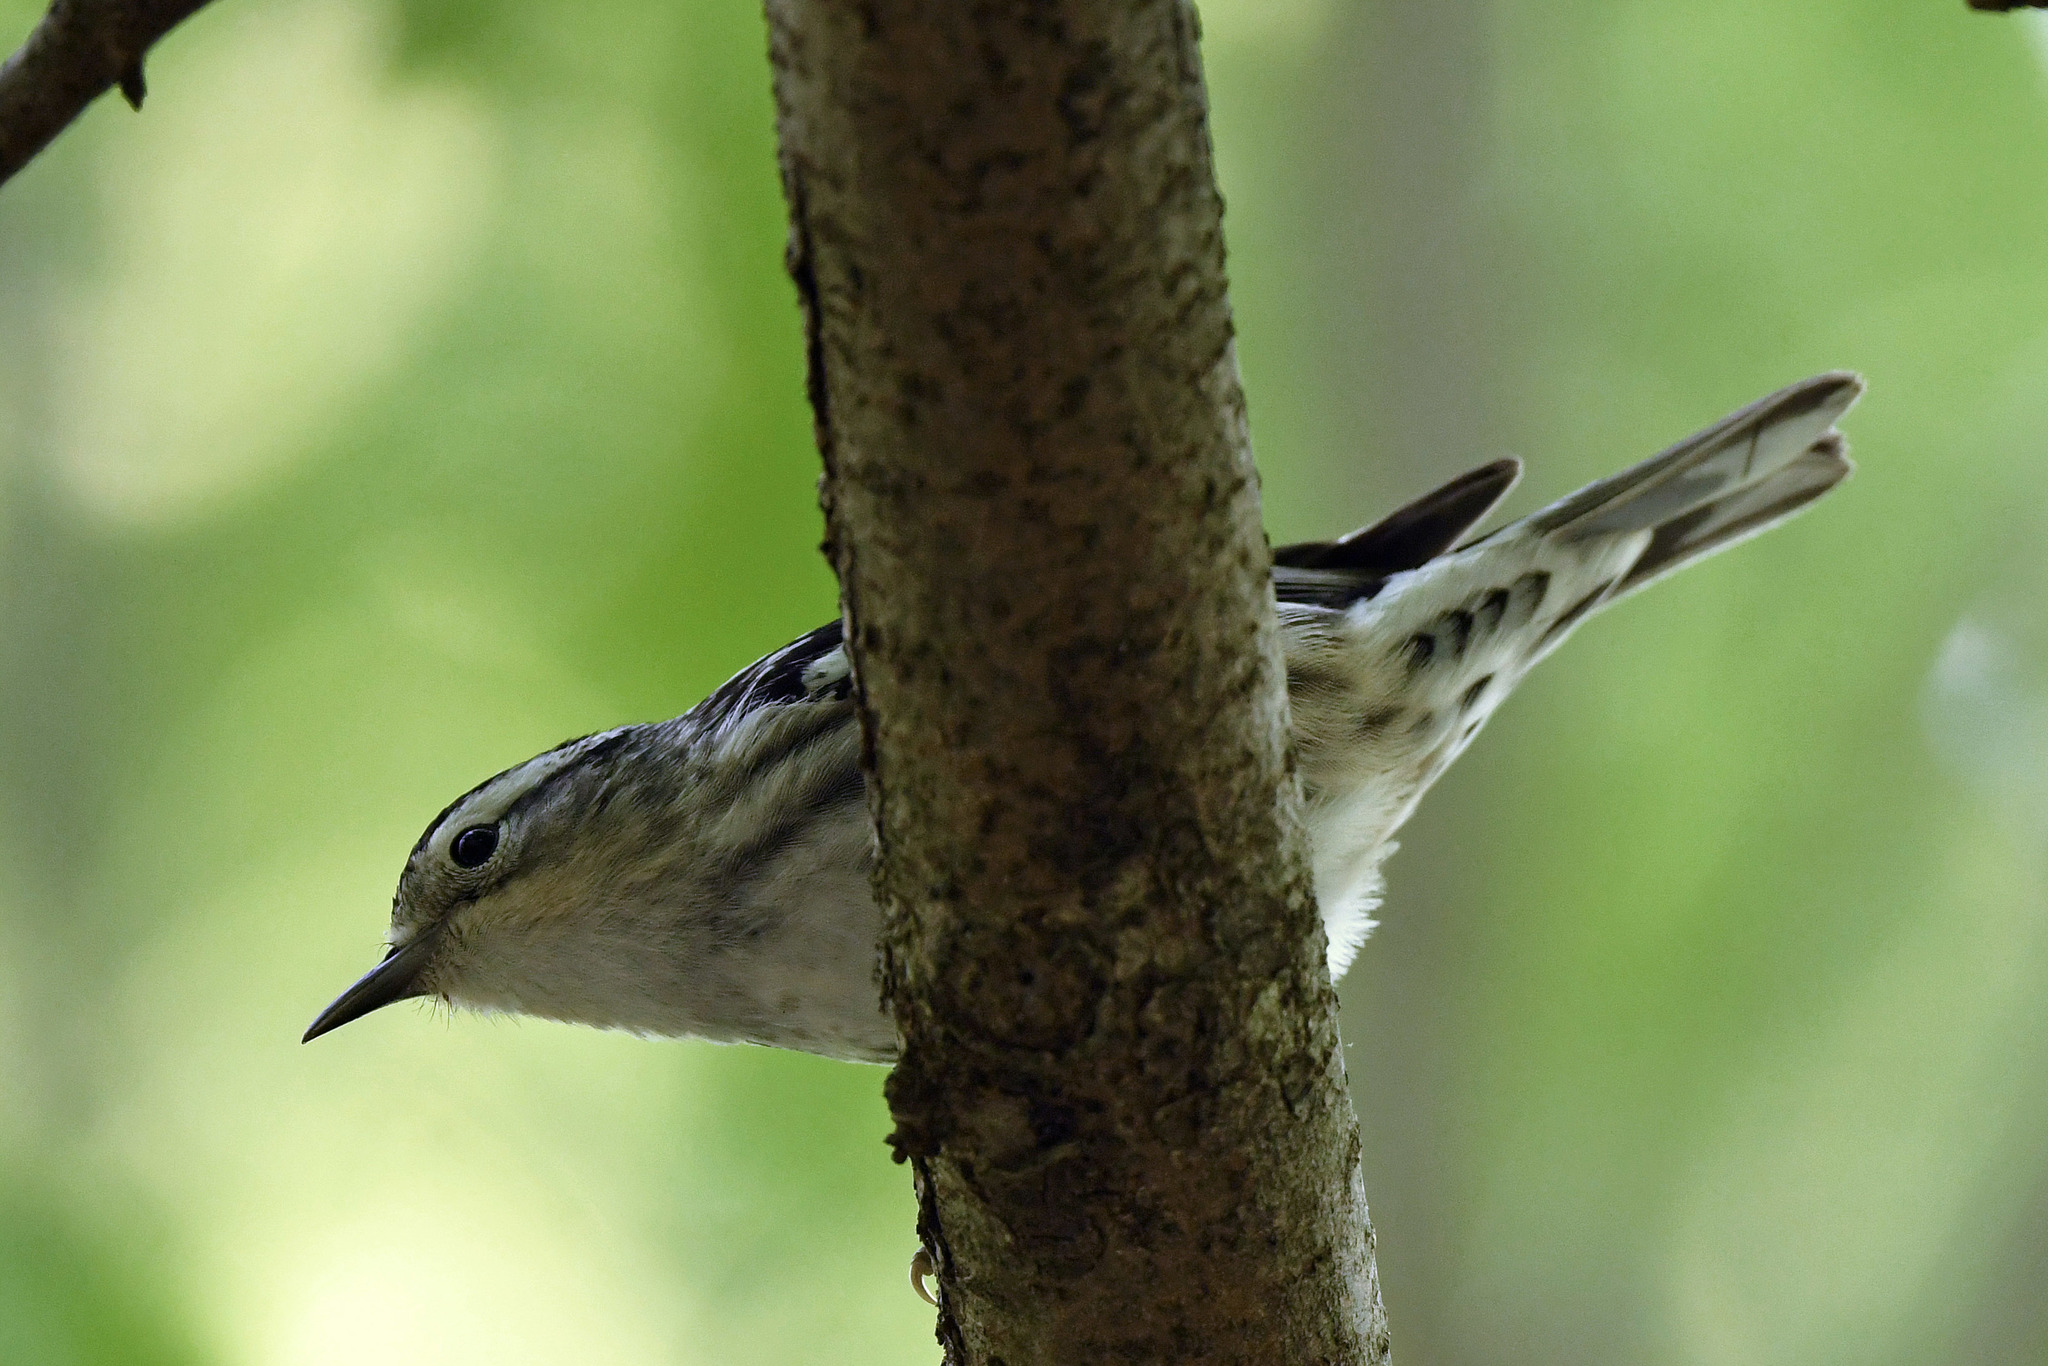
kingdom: Animalia
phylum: Chordata
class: Aves
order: Passeriformes
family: Parulidae
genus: Mniotilta
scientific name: Mniotilta varia
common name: Black-and-white warbler
